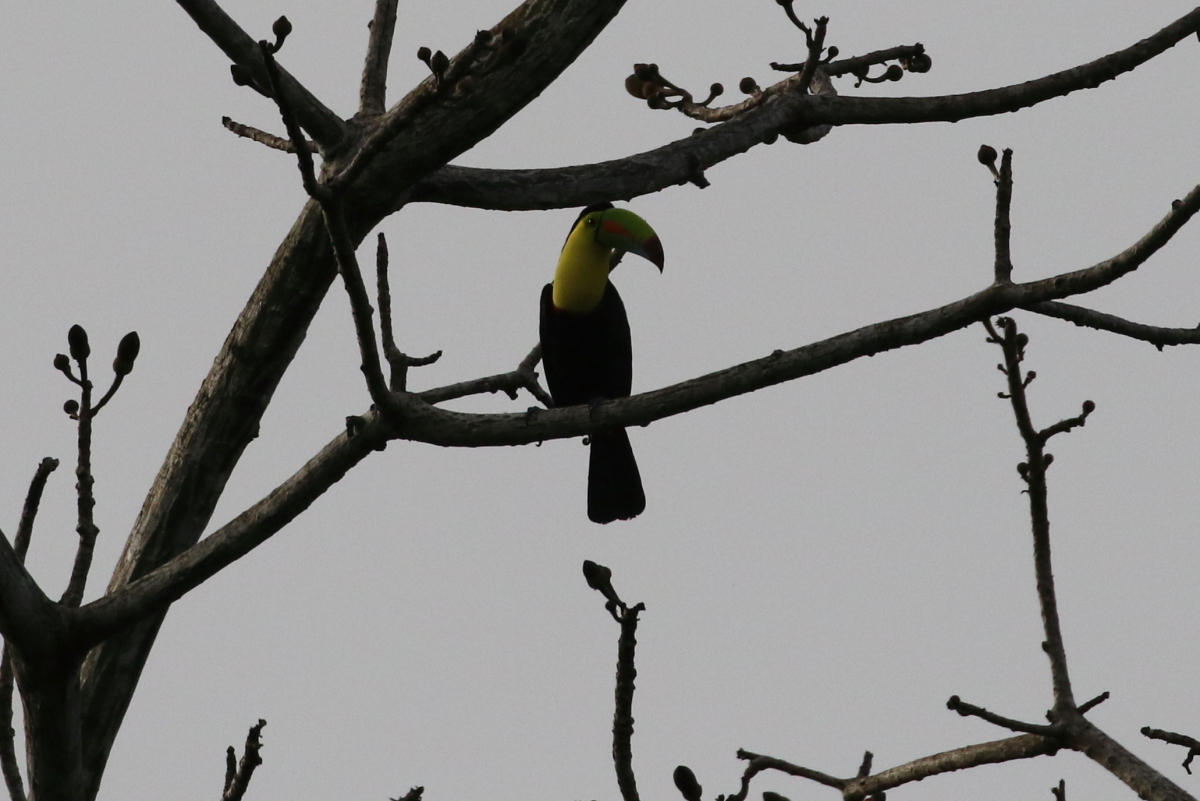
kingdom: Animalia
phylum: Chordata
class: Aves
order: Piciformes
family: Ramphastidae
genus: Ramphastos
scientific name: Ramphastos sulfuratus
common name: Keel-billed toucan
